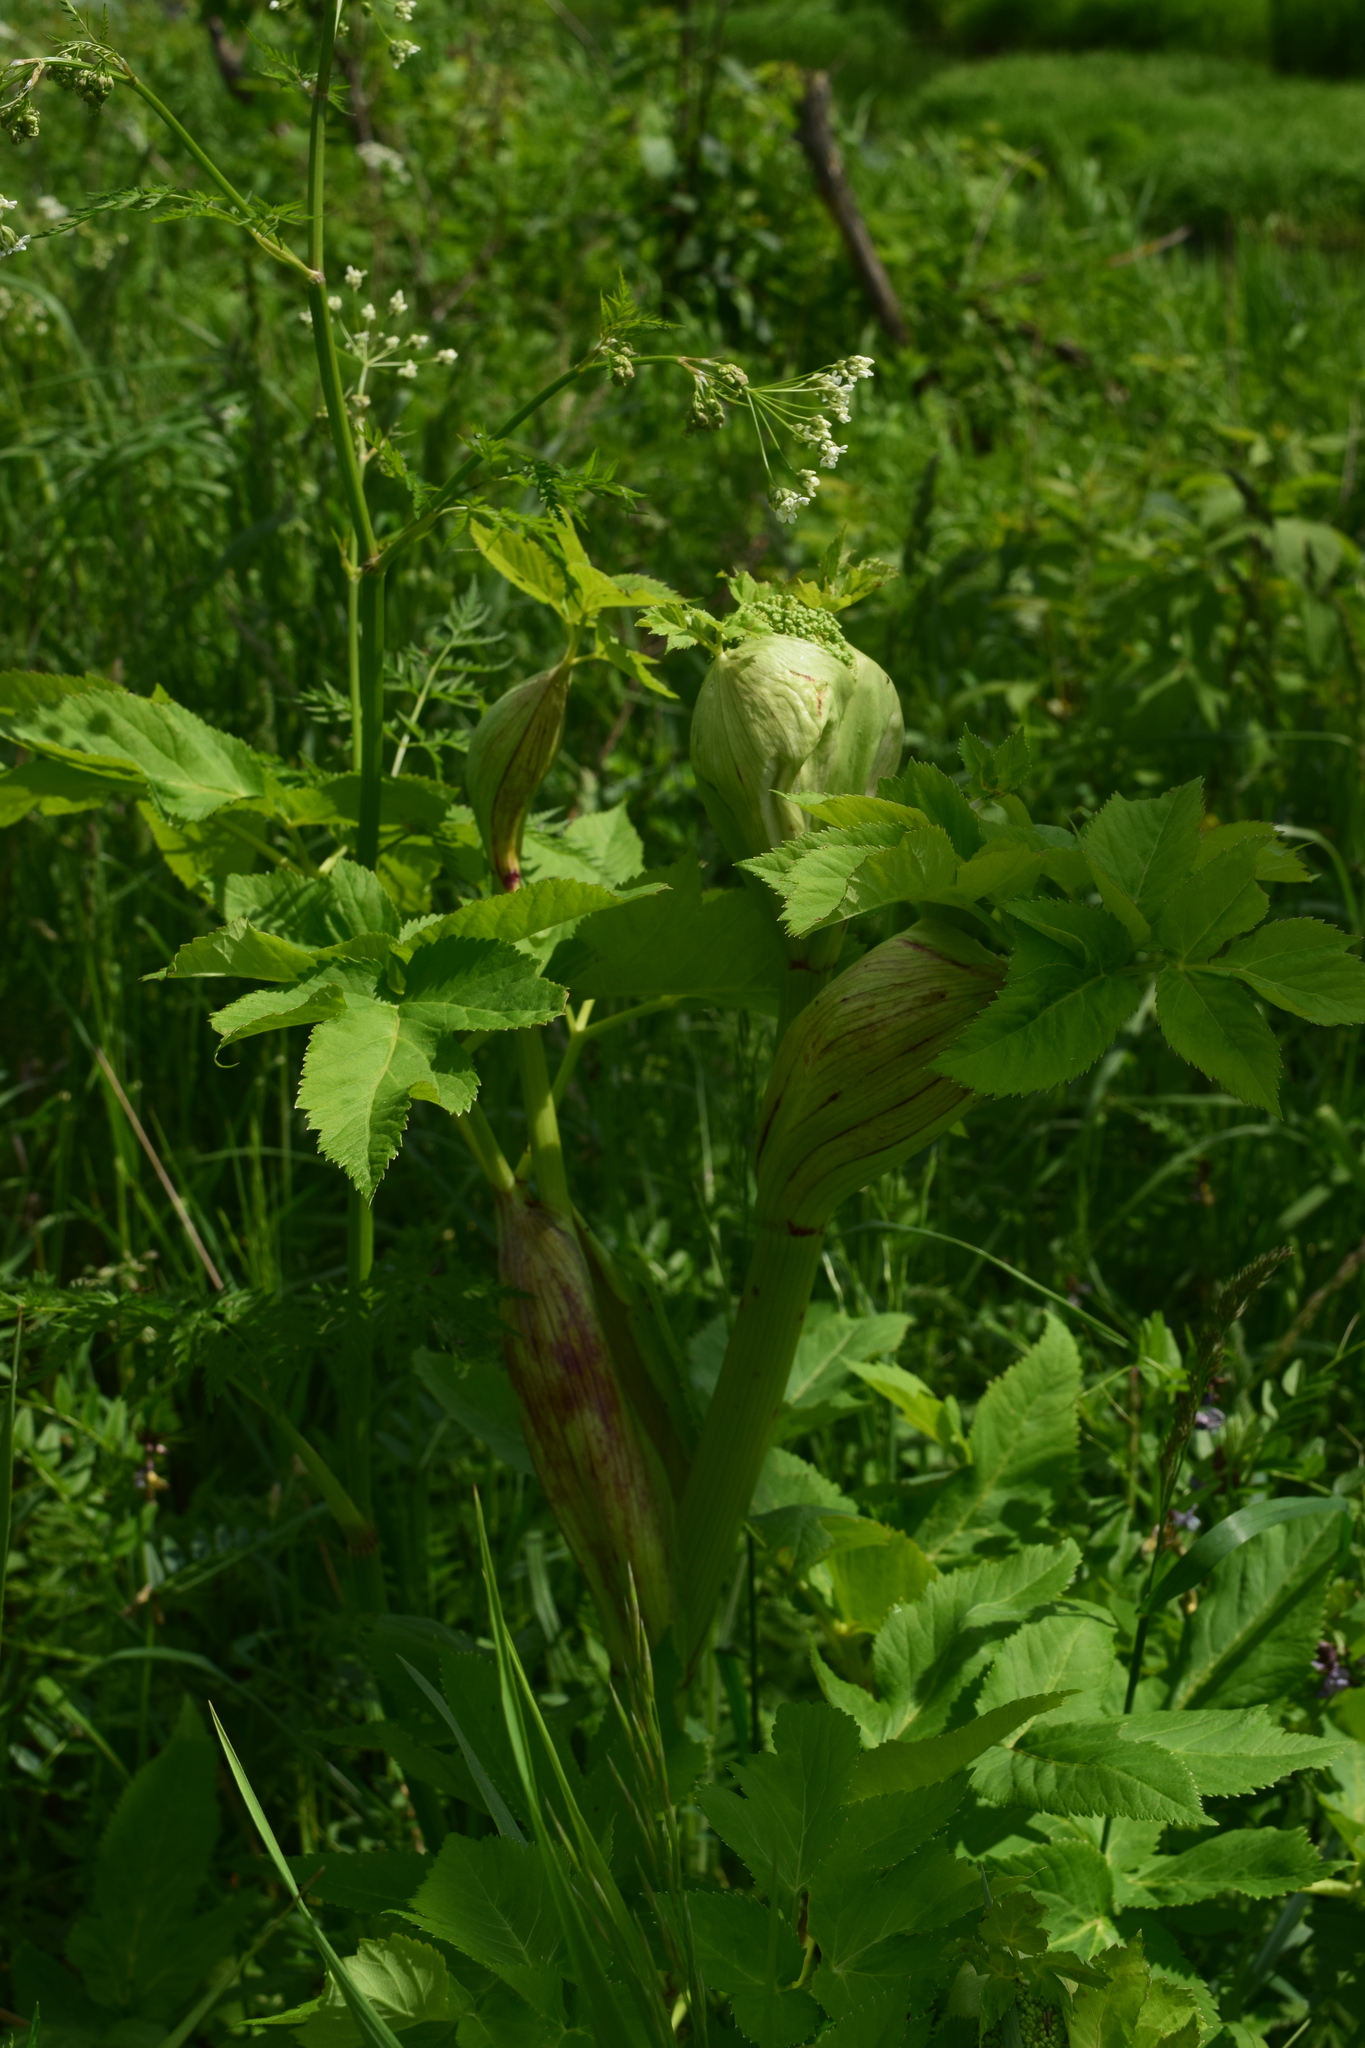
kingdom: Plantae
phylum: Tracheophyta
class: Magnoliopsida
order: Apiales
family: Apiaceae
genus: Angelica
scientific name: Angelica archangelica
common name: Garden angelica
